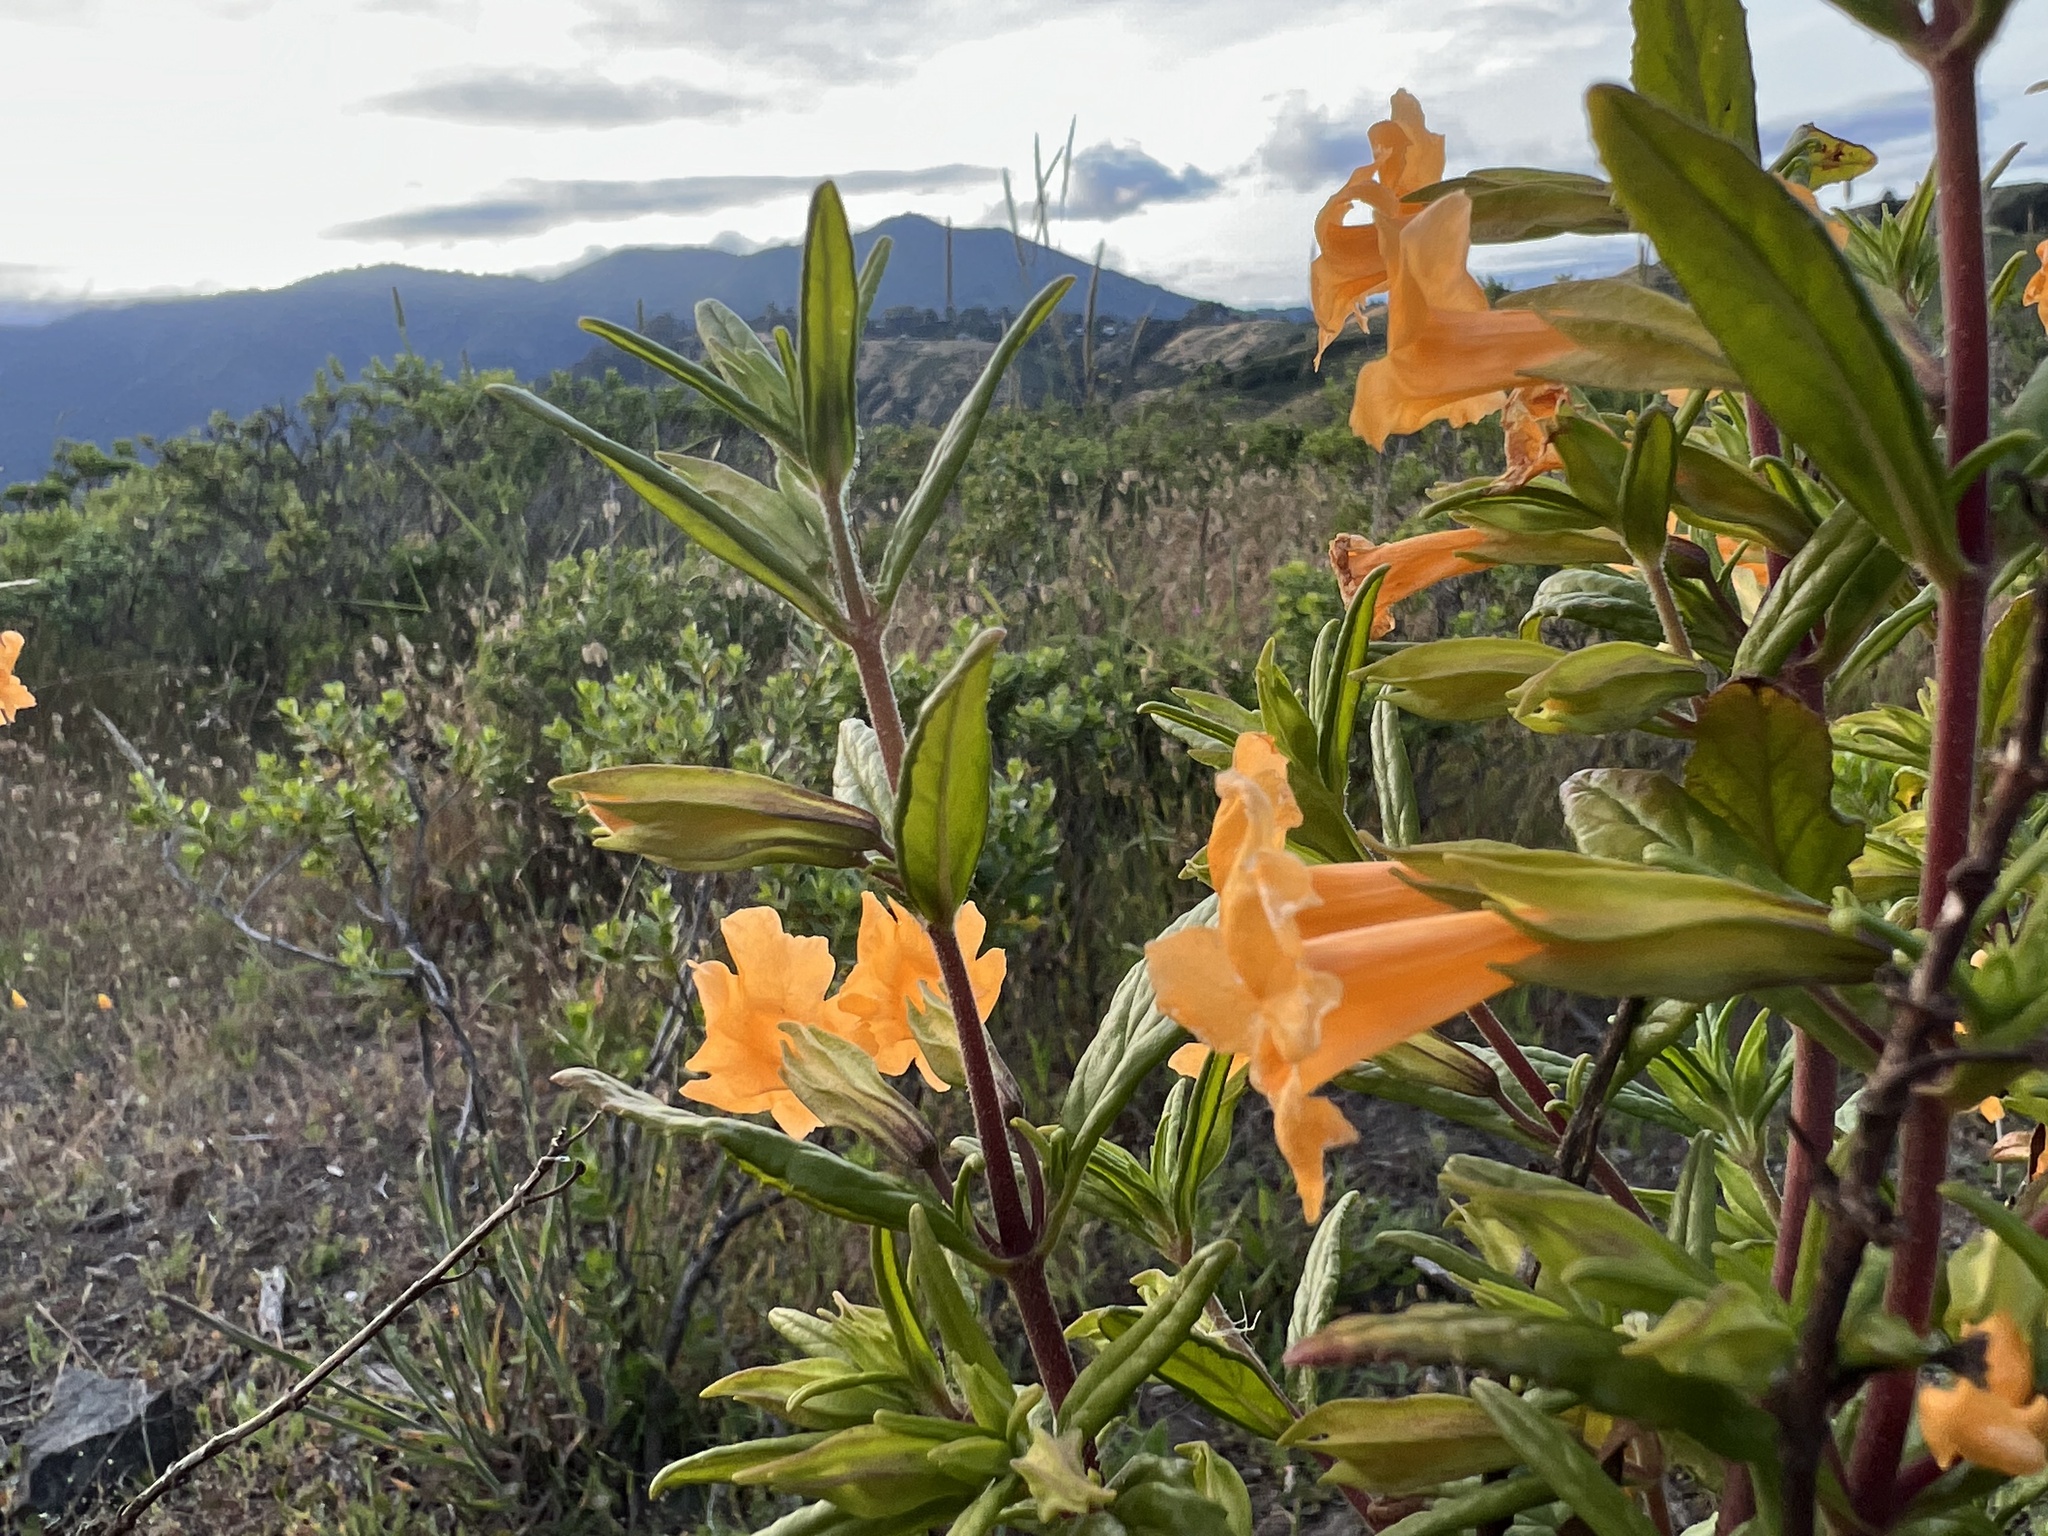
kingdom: Plantae
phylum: Tracheophyta
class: Magnoliopsida
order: Lamiales
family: Phrymaceae
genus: Diplacus
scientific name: Diplacus aurantiacus
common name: Bush monkey-flower
